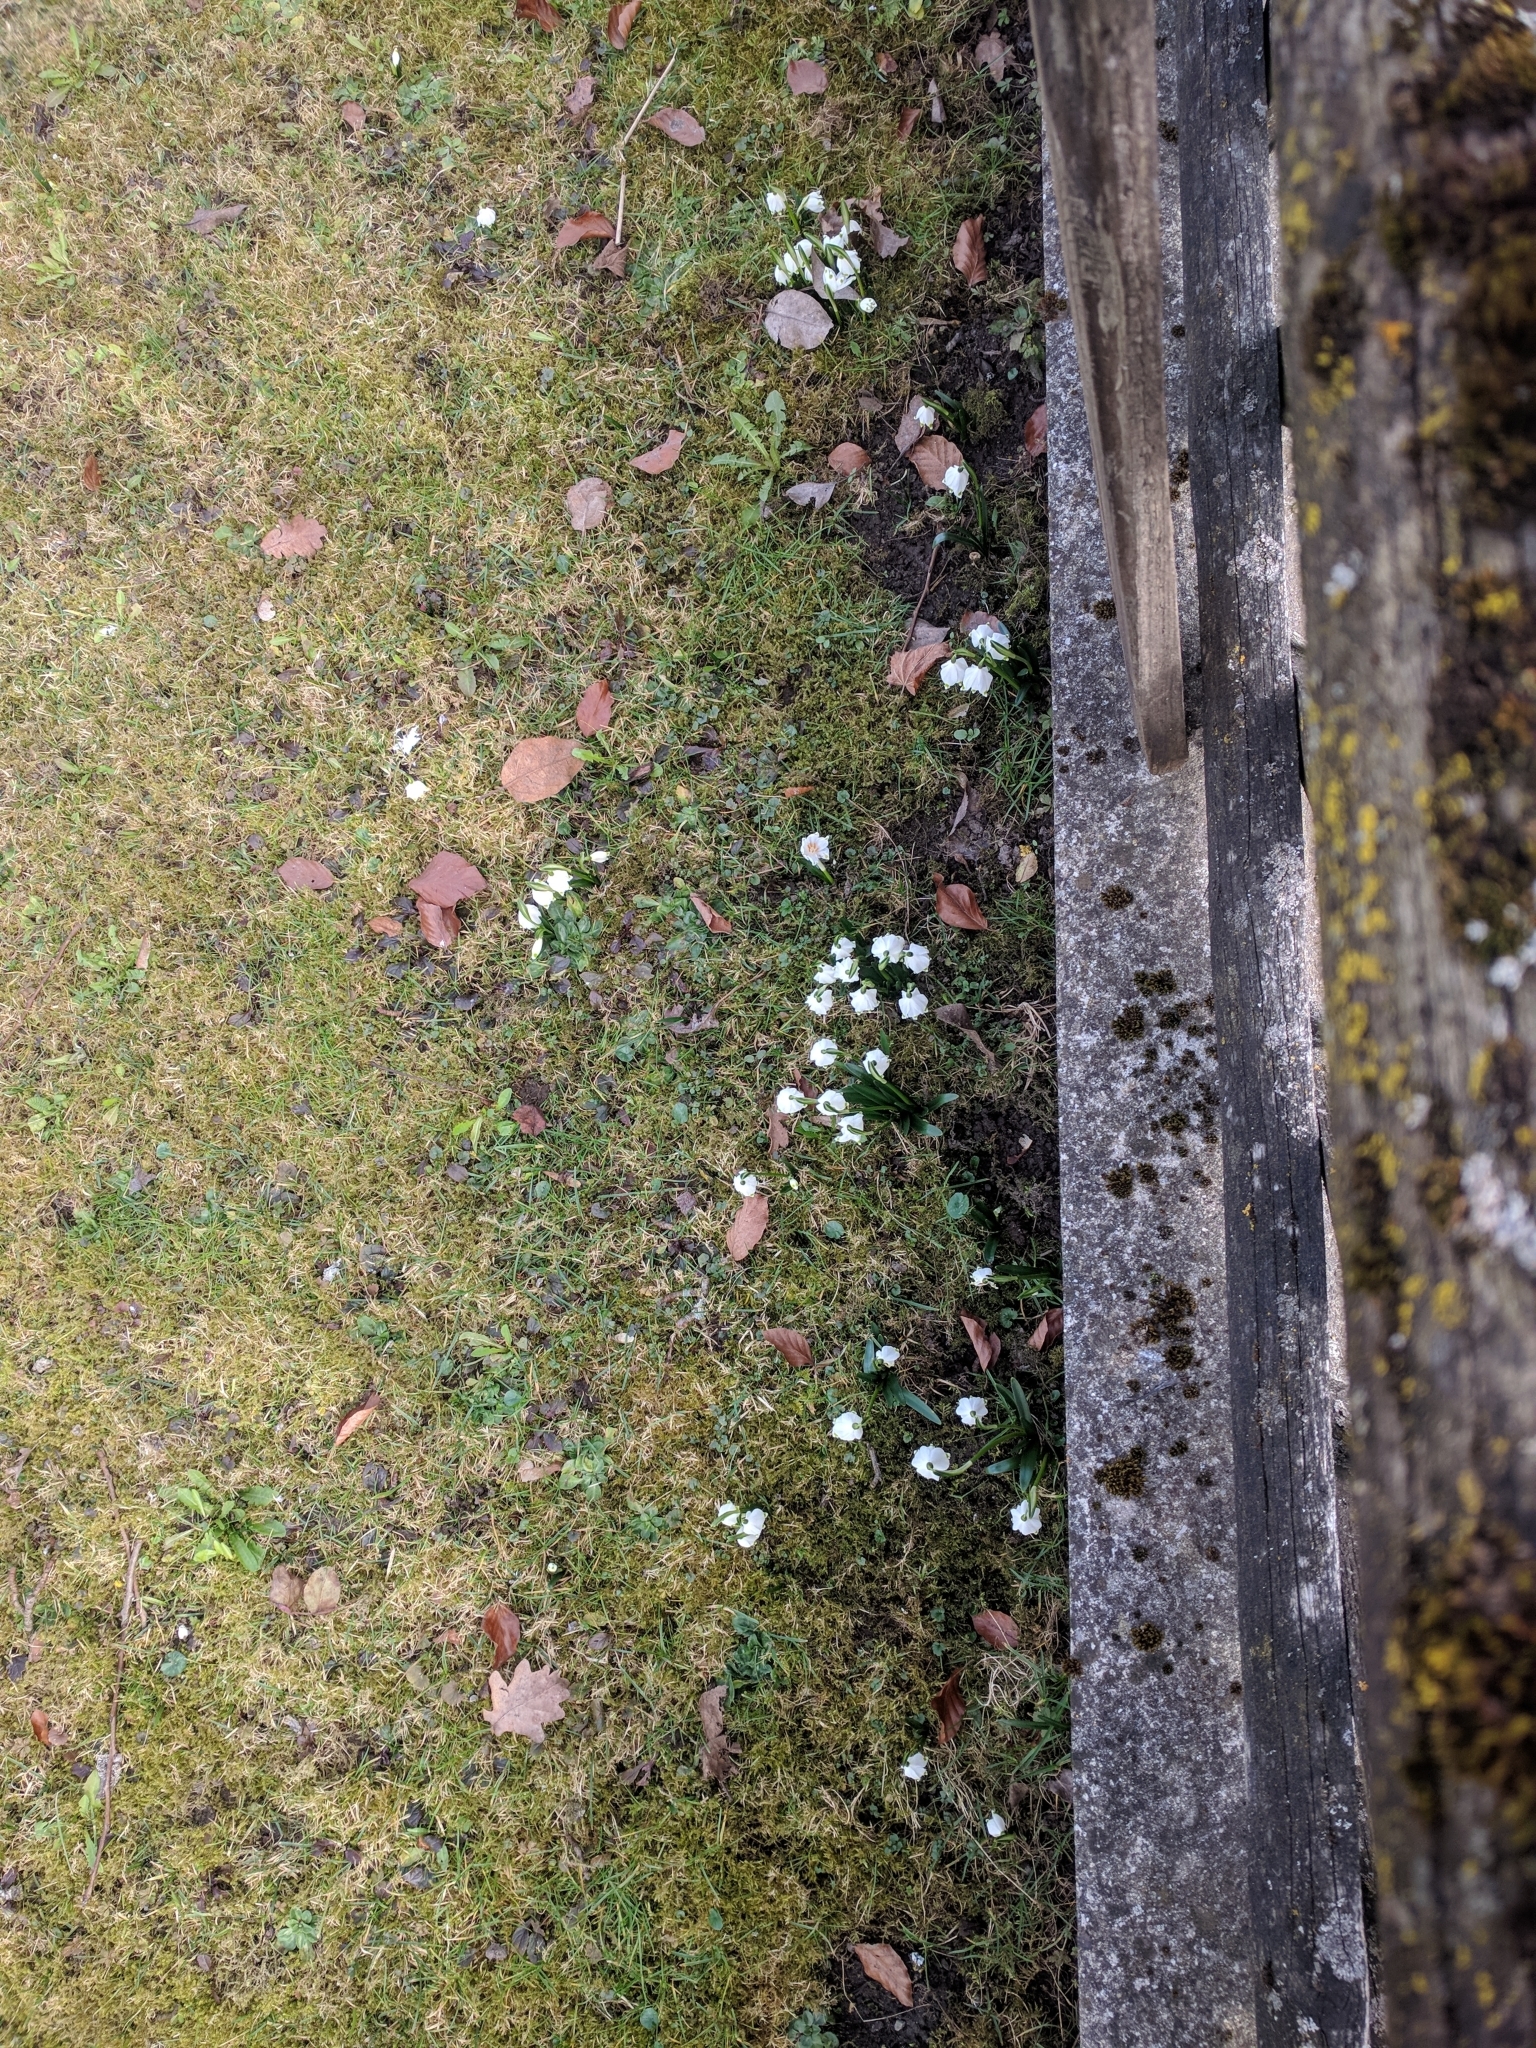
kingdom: Plantae
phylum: Tracheophyta
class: Liliopsida
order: Asparagales
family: Amaryllidaceae
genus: Leucojum
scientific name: Leucojum vernum
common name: Spring snowflake
